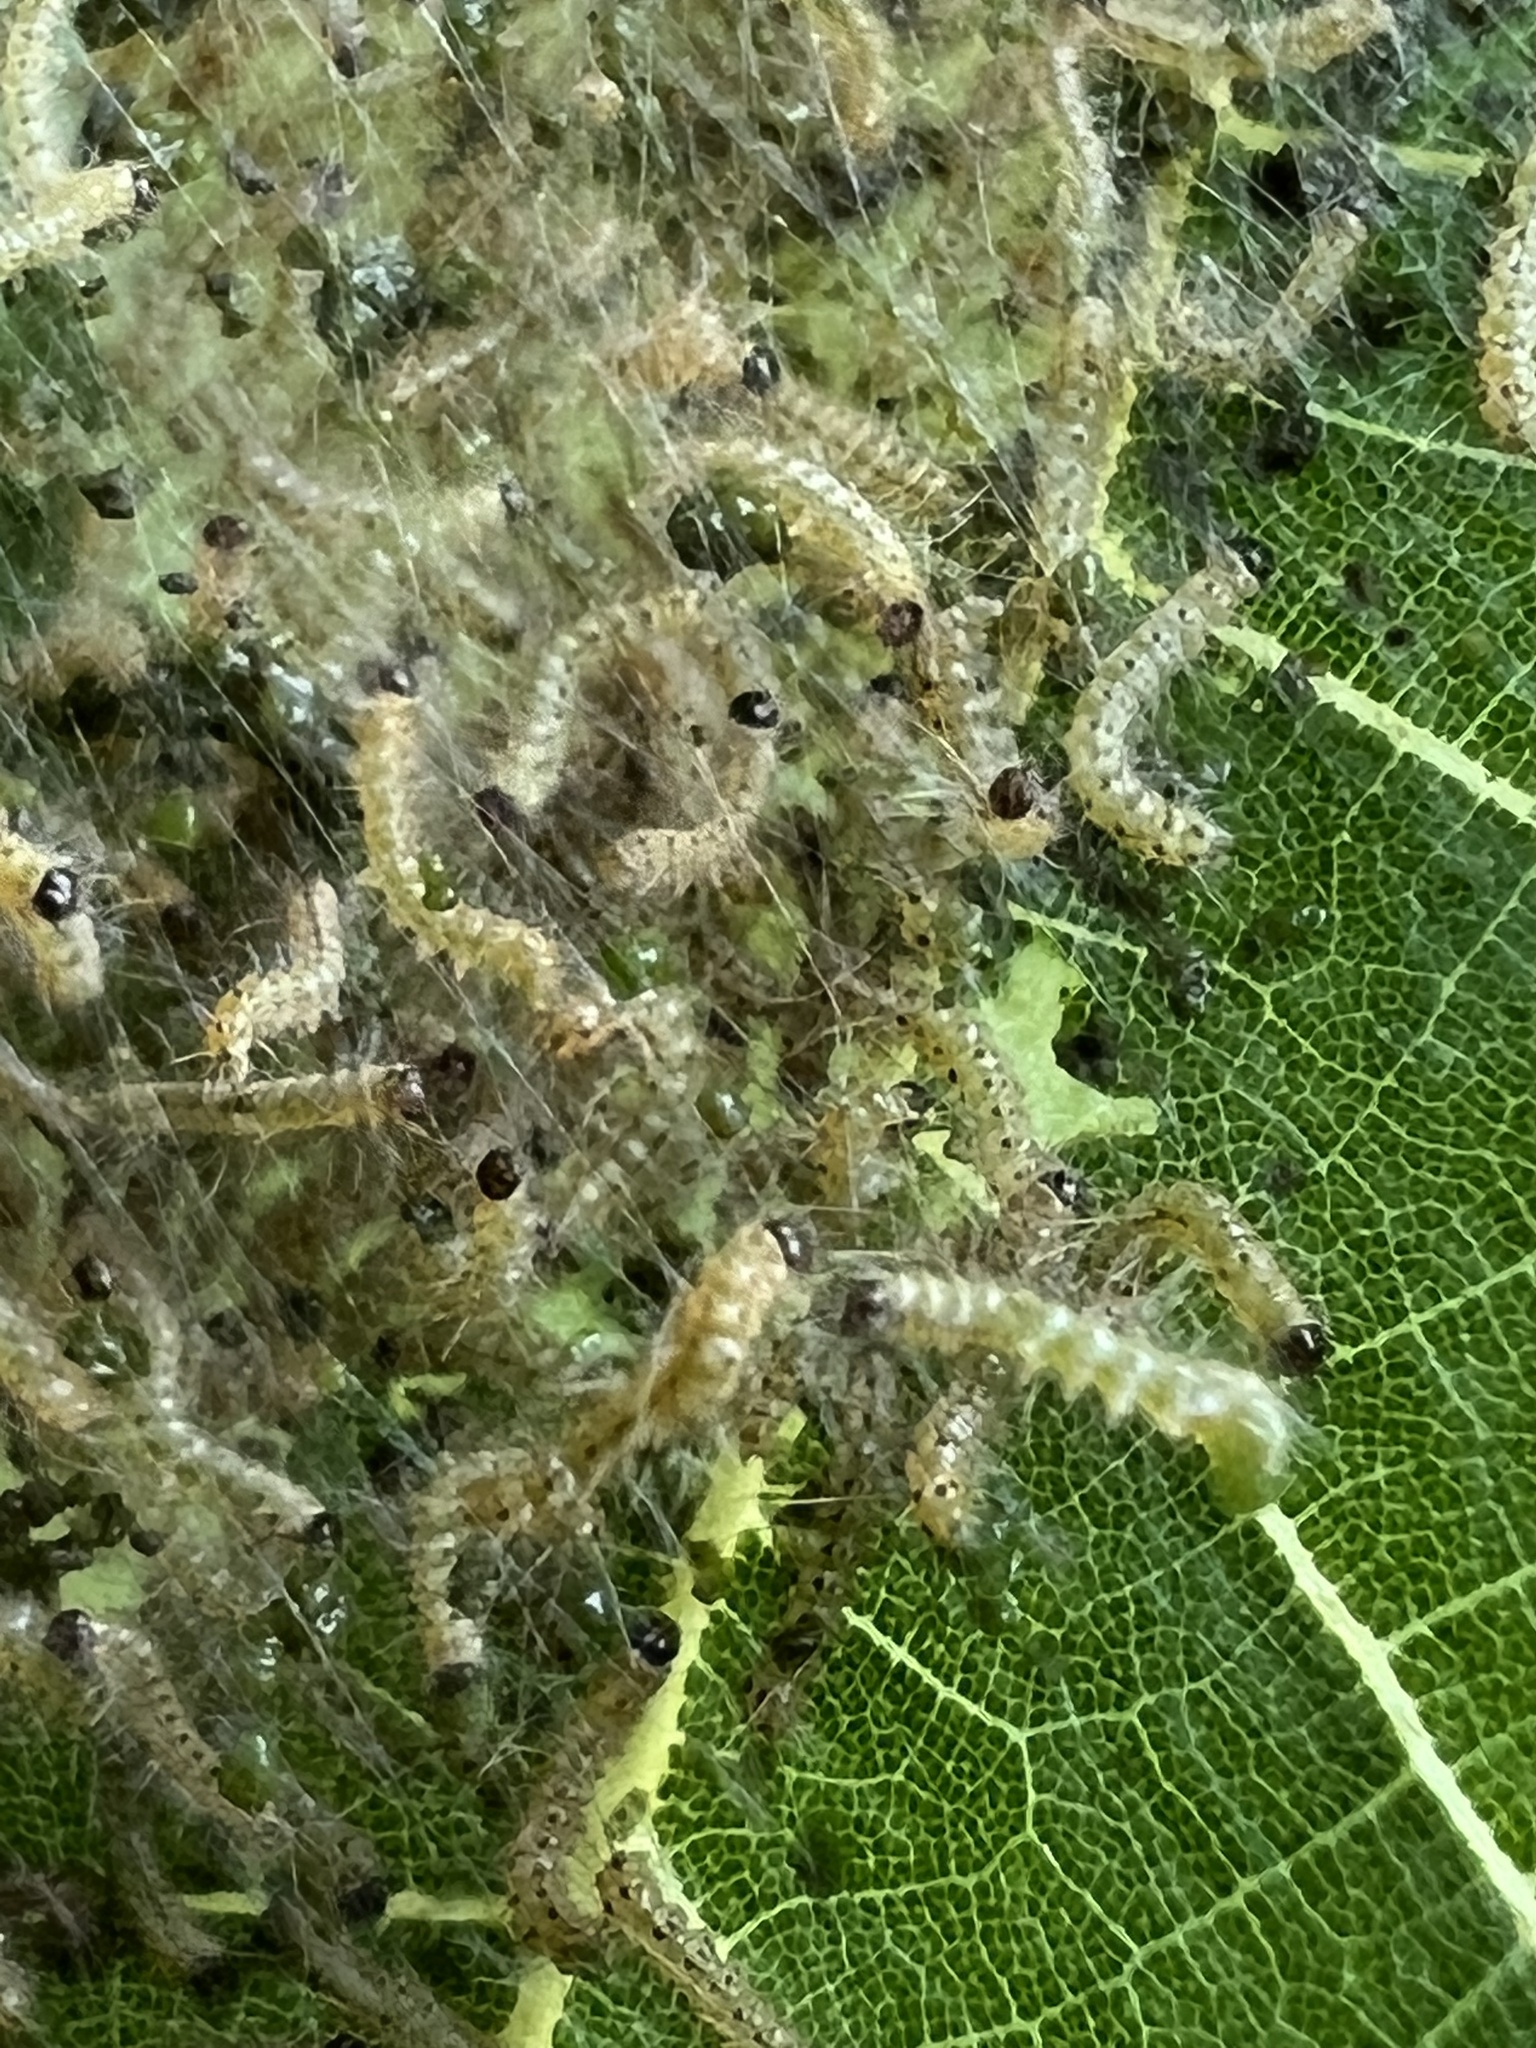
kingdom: Animalia
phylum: Arthropoda
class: Insecta
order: Lepidoptera
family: Erebidae
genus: Hyphantria
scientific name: Hyphantria cunea
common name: American white moth
